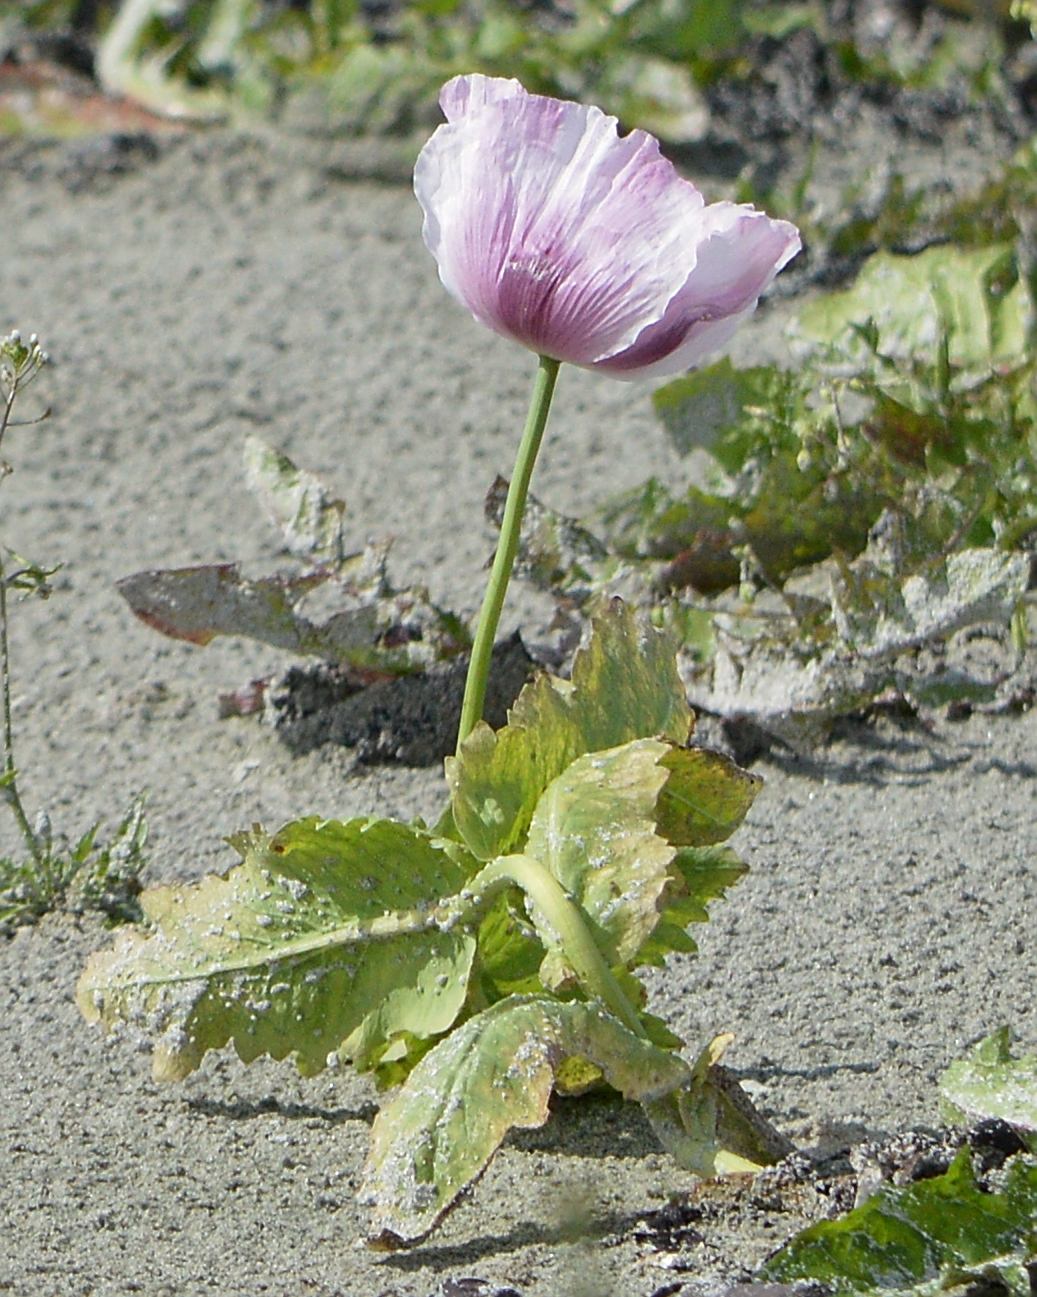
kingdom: Plantae
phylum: Tracheophyta
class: Magnoliopsida
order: Ranunculales
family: Papaveraceae
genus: Papaver
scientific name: Papaver somniferum
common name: Opium poppy
